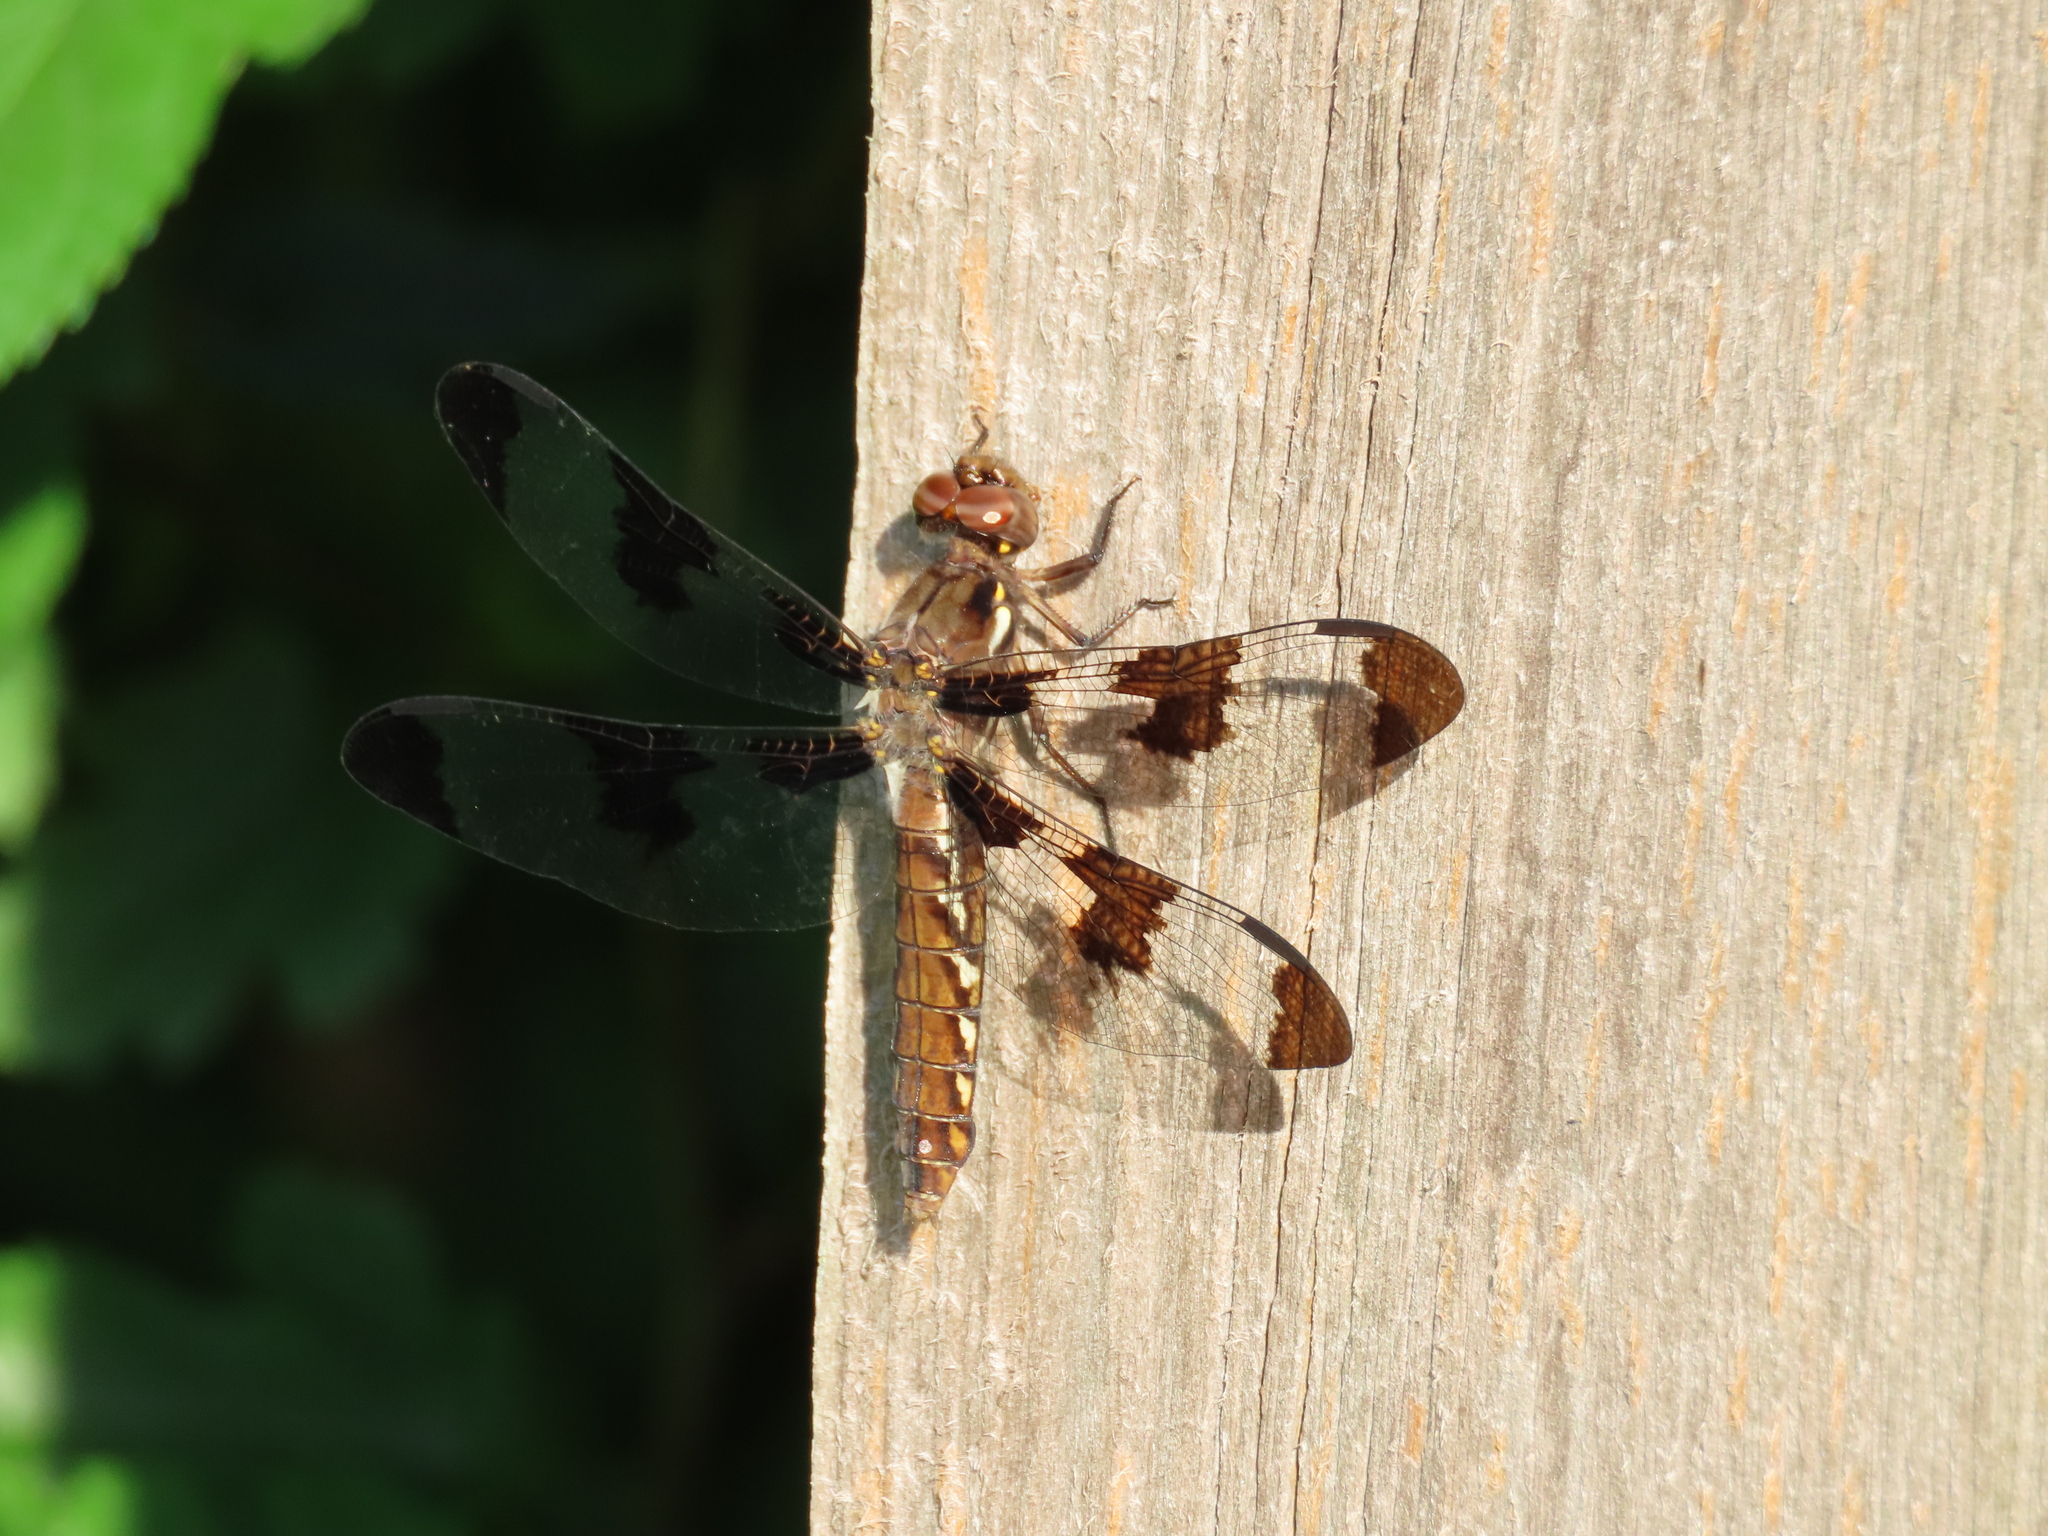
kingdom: Animalia
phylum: Arthropoda
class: Insecta
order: Odonata
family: Libellulidae
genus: Plathemis
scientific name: Plathemis lydia
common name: Common whitetail
